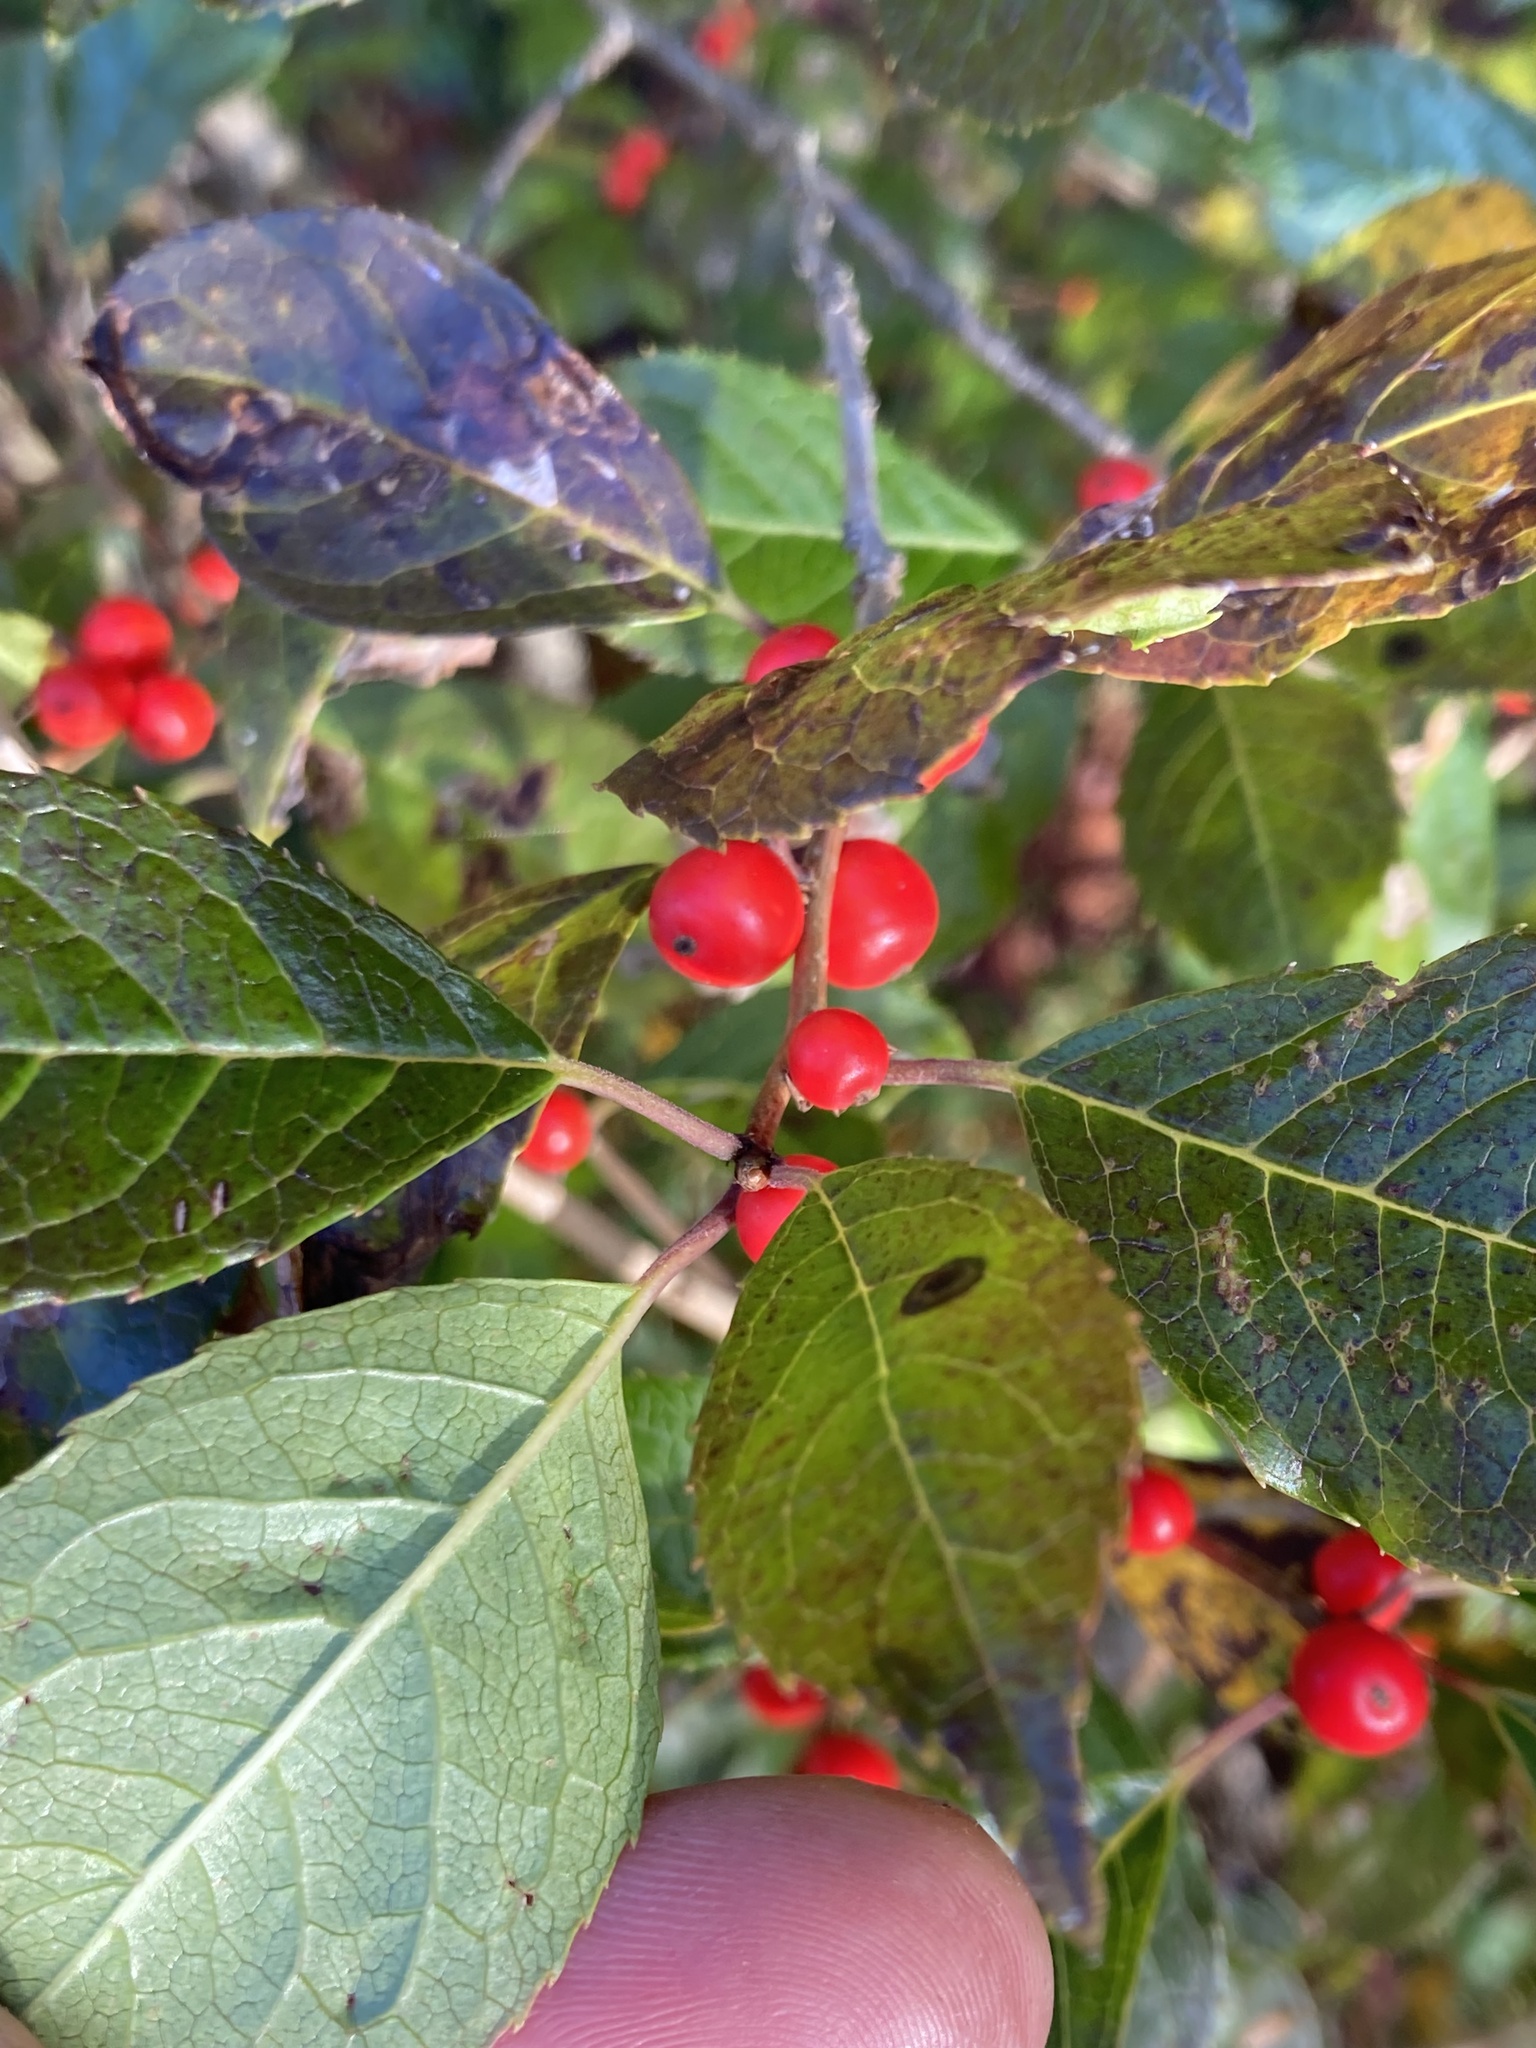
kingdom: Plantae
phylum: Tracheophyta
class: Magnoliopsida
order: Aquifoliales
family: Aquifoliaceae
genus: Ilex
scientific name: Ilex verticillata
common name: Virginia winterberry
